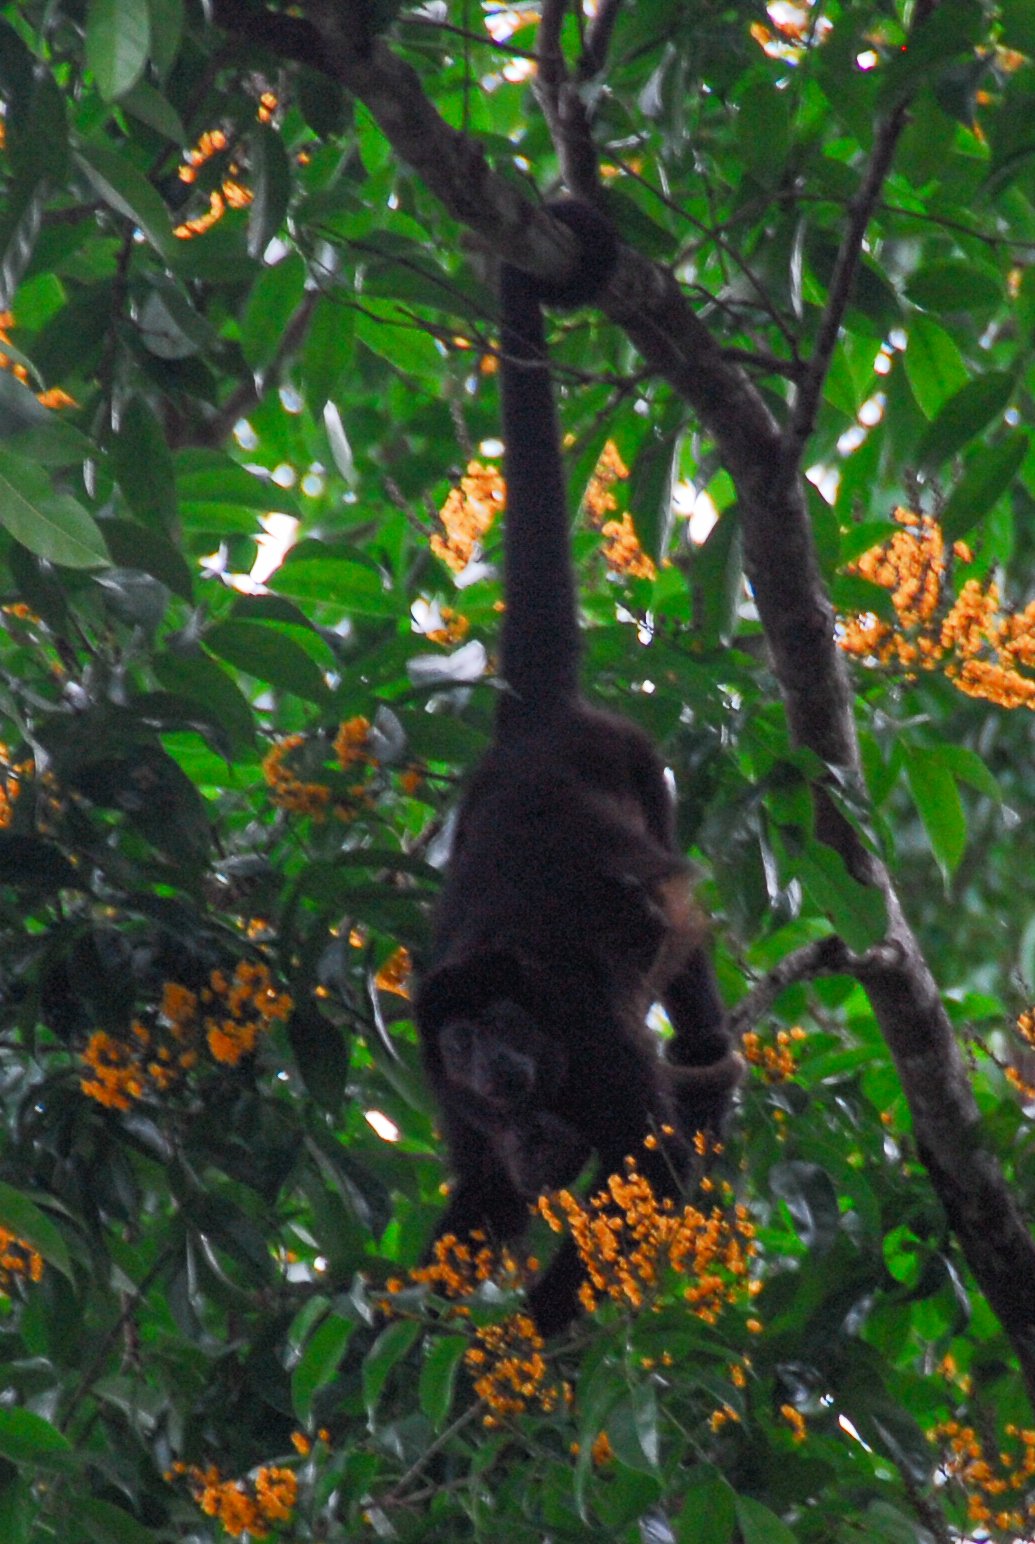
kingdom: Animalia
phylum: Chordata
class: Mammalia
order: Primates
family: Atelidae
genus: Alouatta
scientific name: Alouatta palliata
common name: Mantled howler
